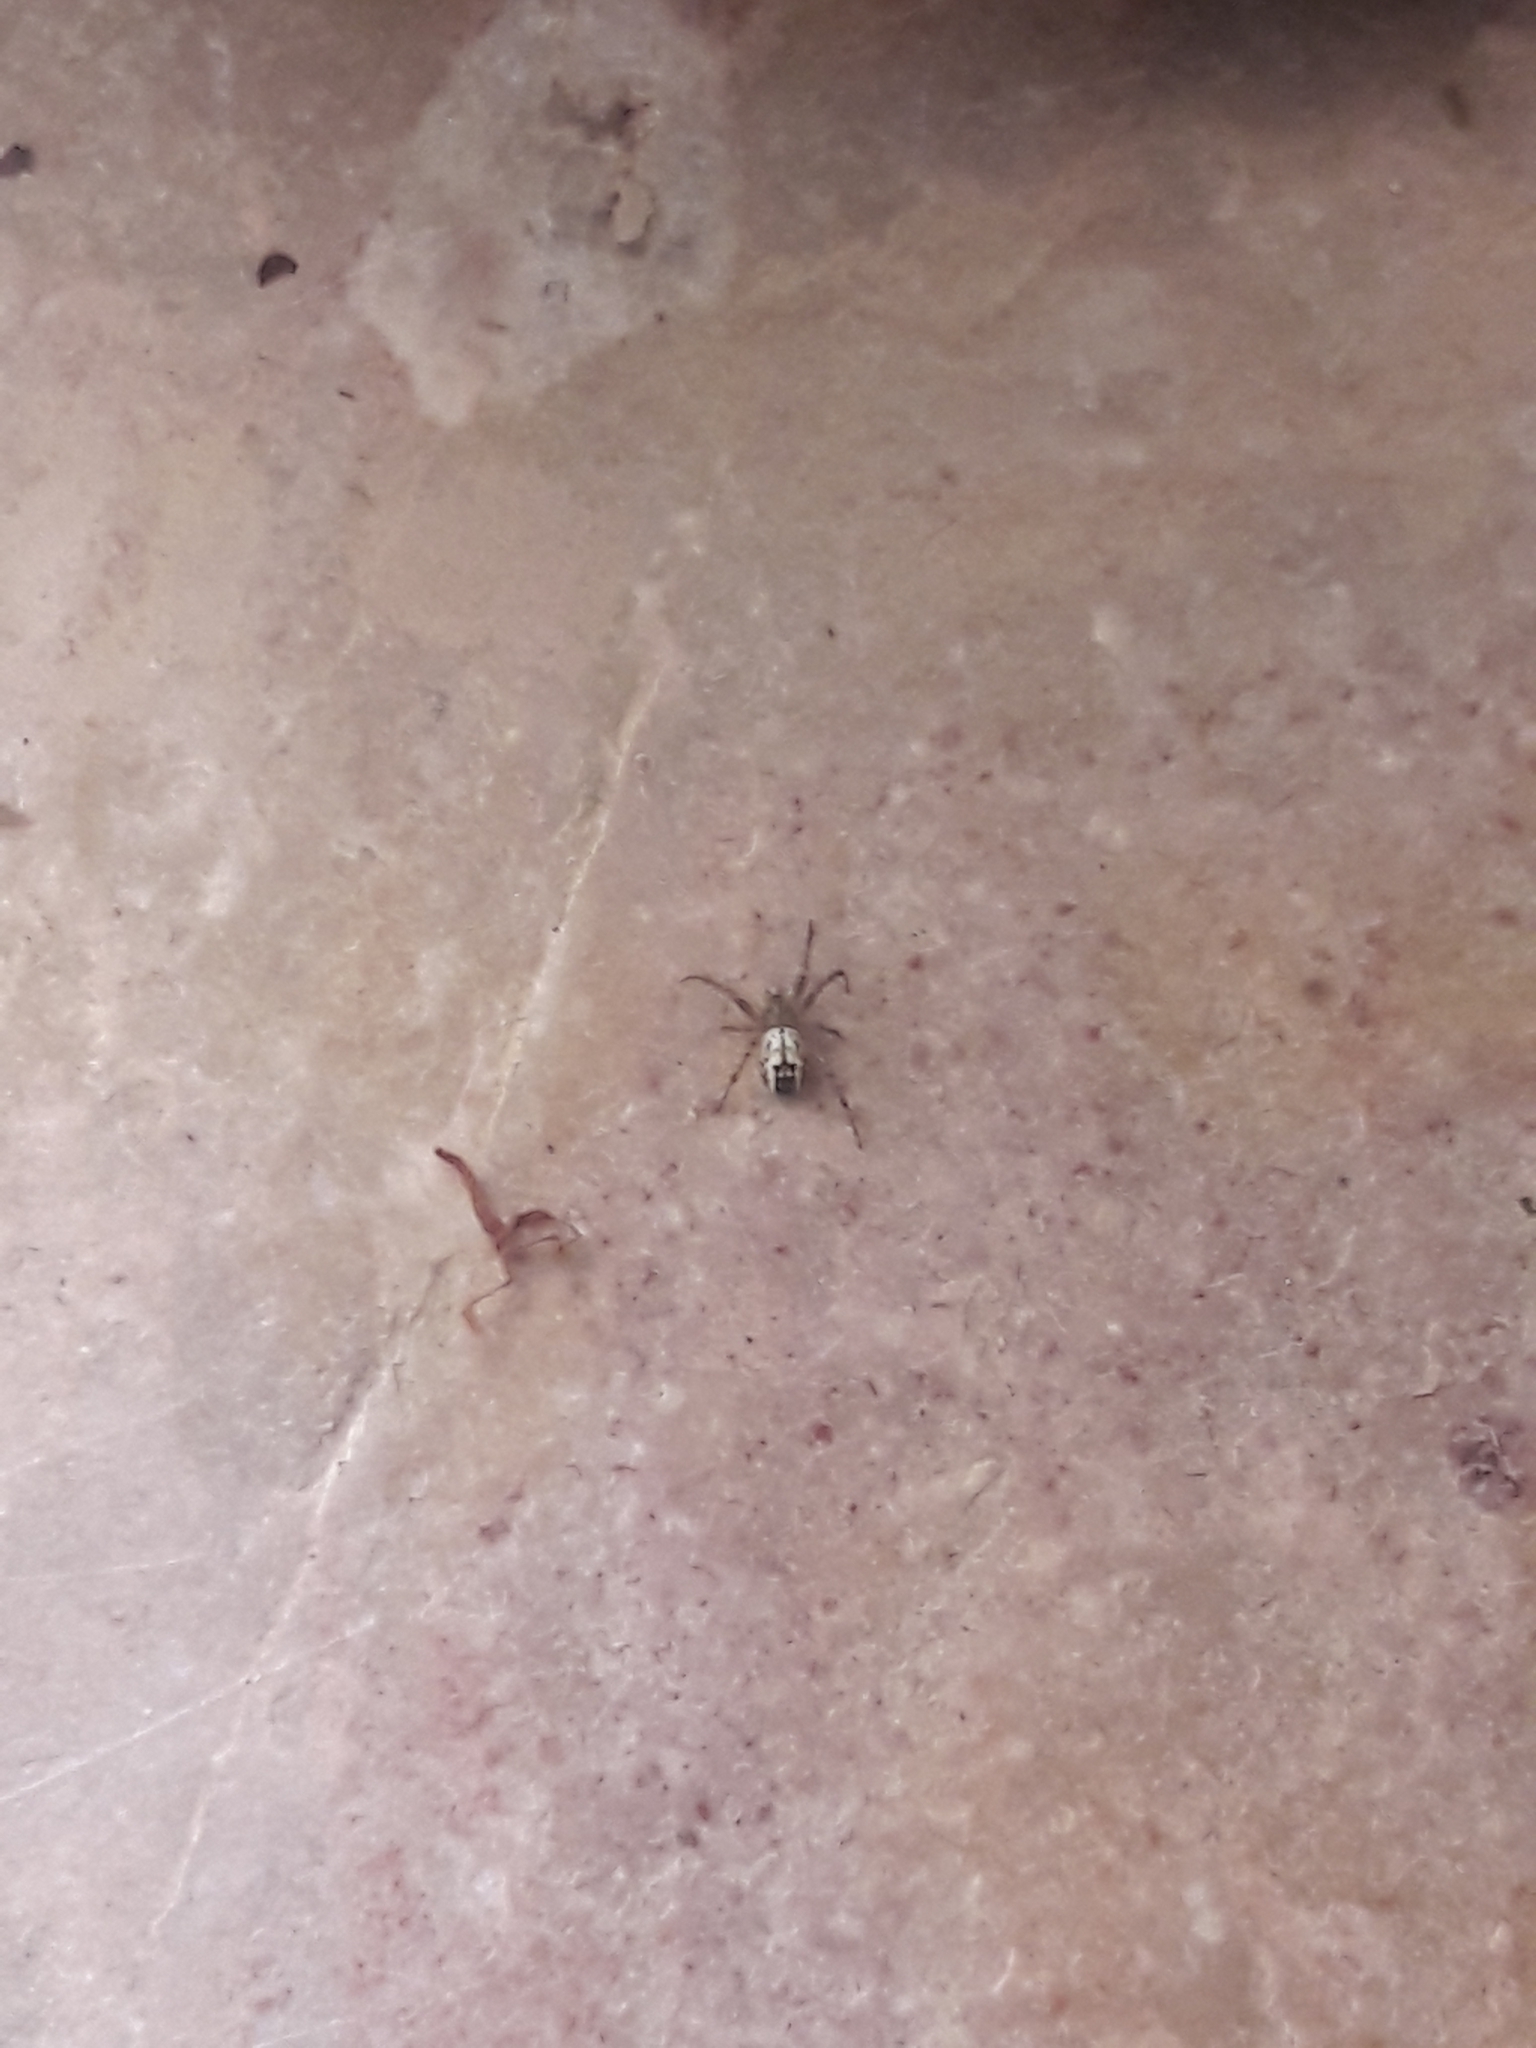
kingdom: Animalia
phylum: Arthropoda
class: Arachnida
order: Araneae
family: Araneidae
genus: Mangora
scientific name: Mangora acalypha
